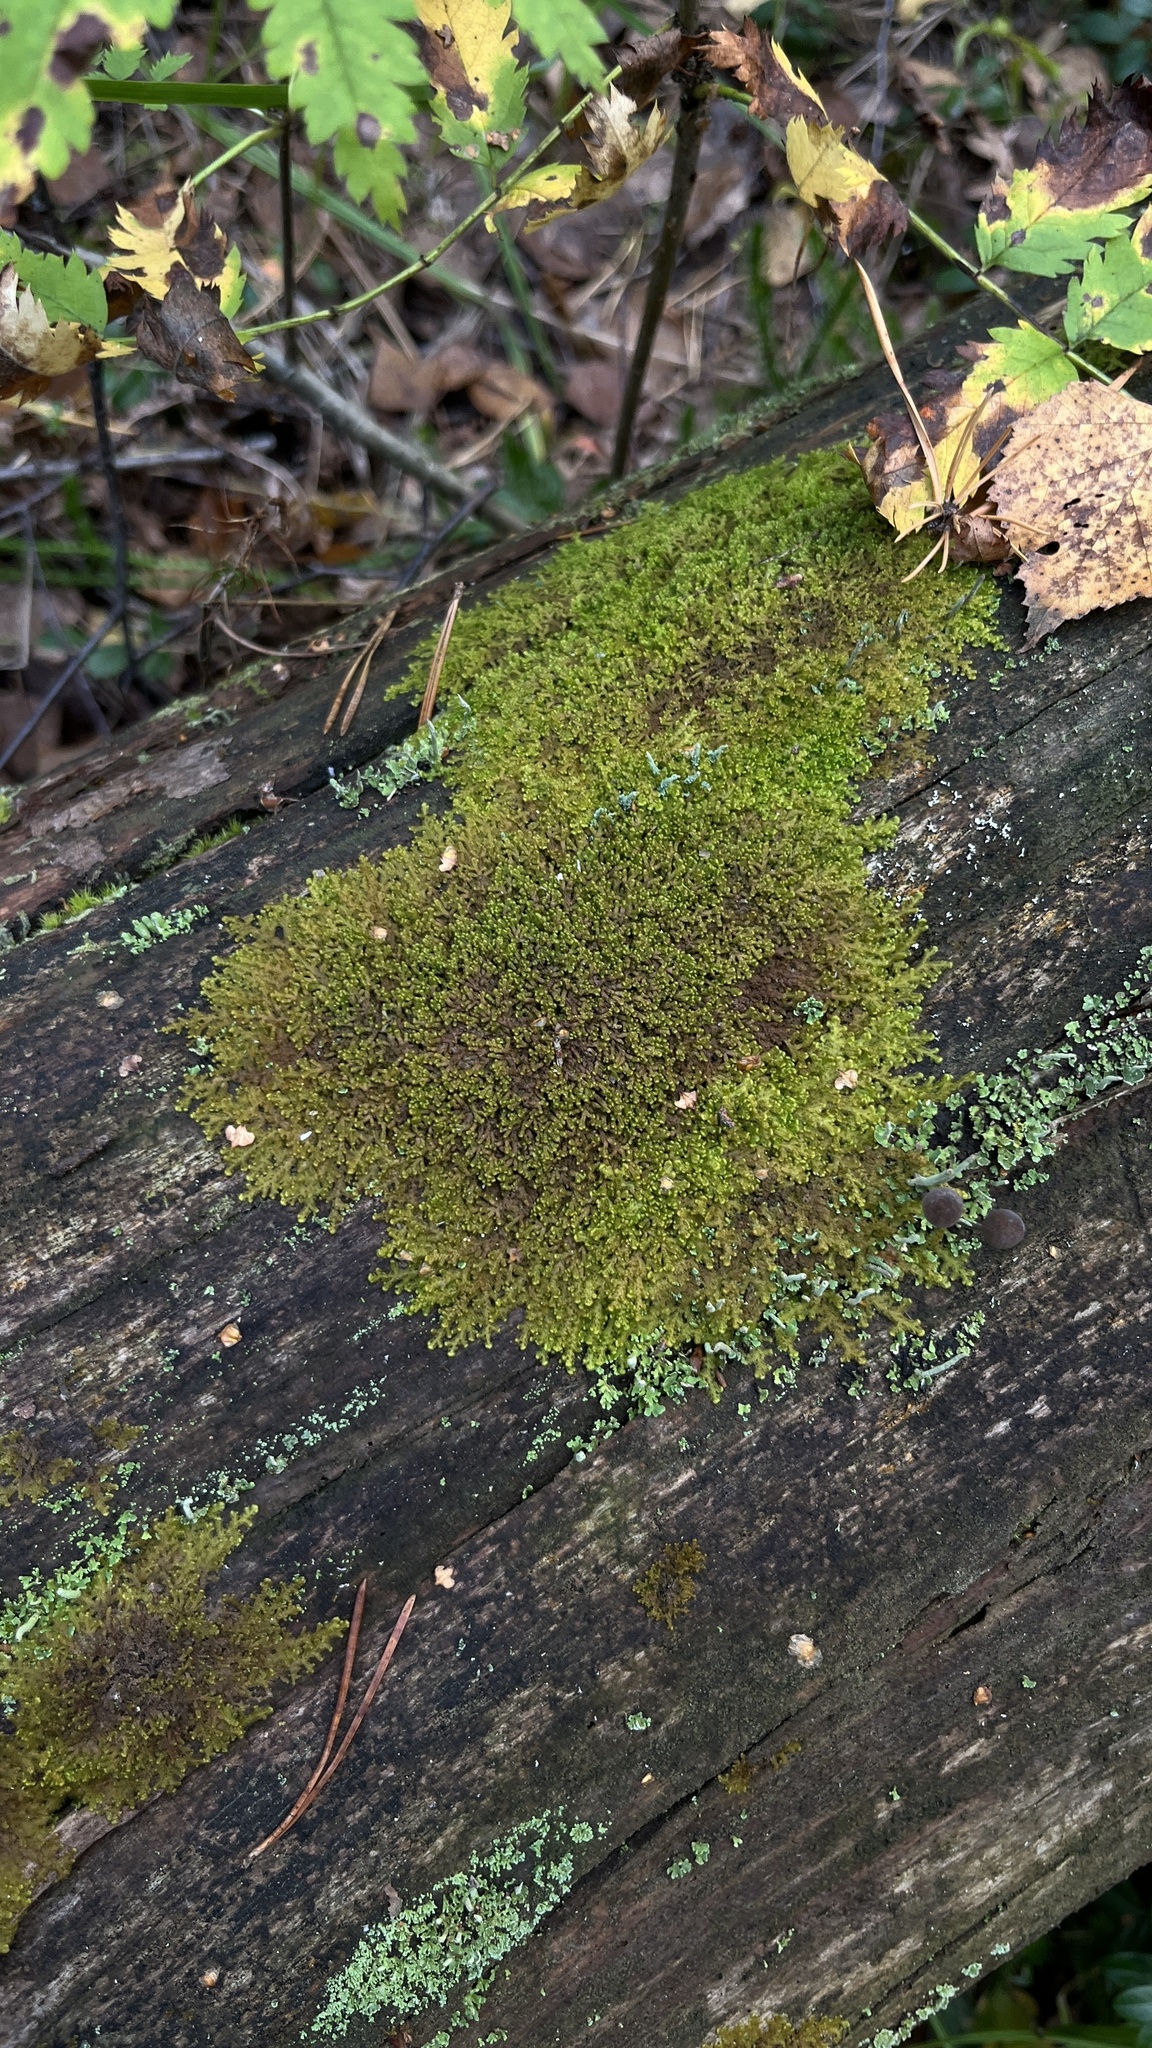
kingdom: Plantae
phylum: Marchantiophyta
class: Jungermanniopsida
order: Ptilidiales
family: Ptilidiaceae
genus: Ptilidium
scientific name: Ptilidium pulcherrimum
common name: Tree fringewort
